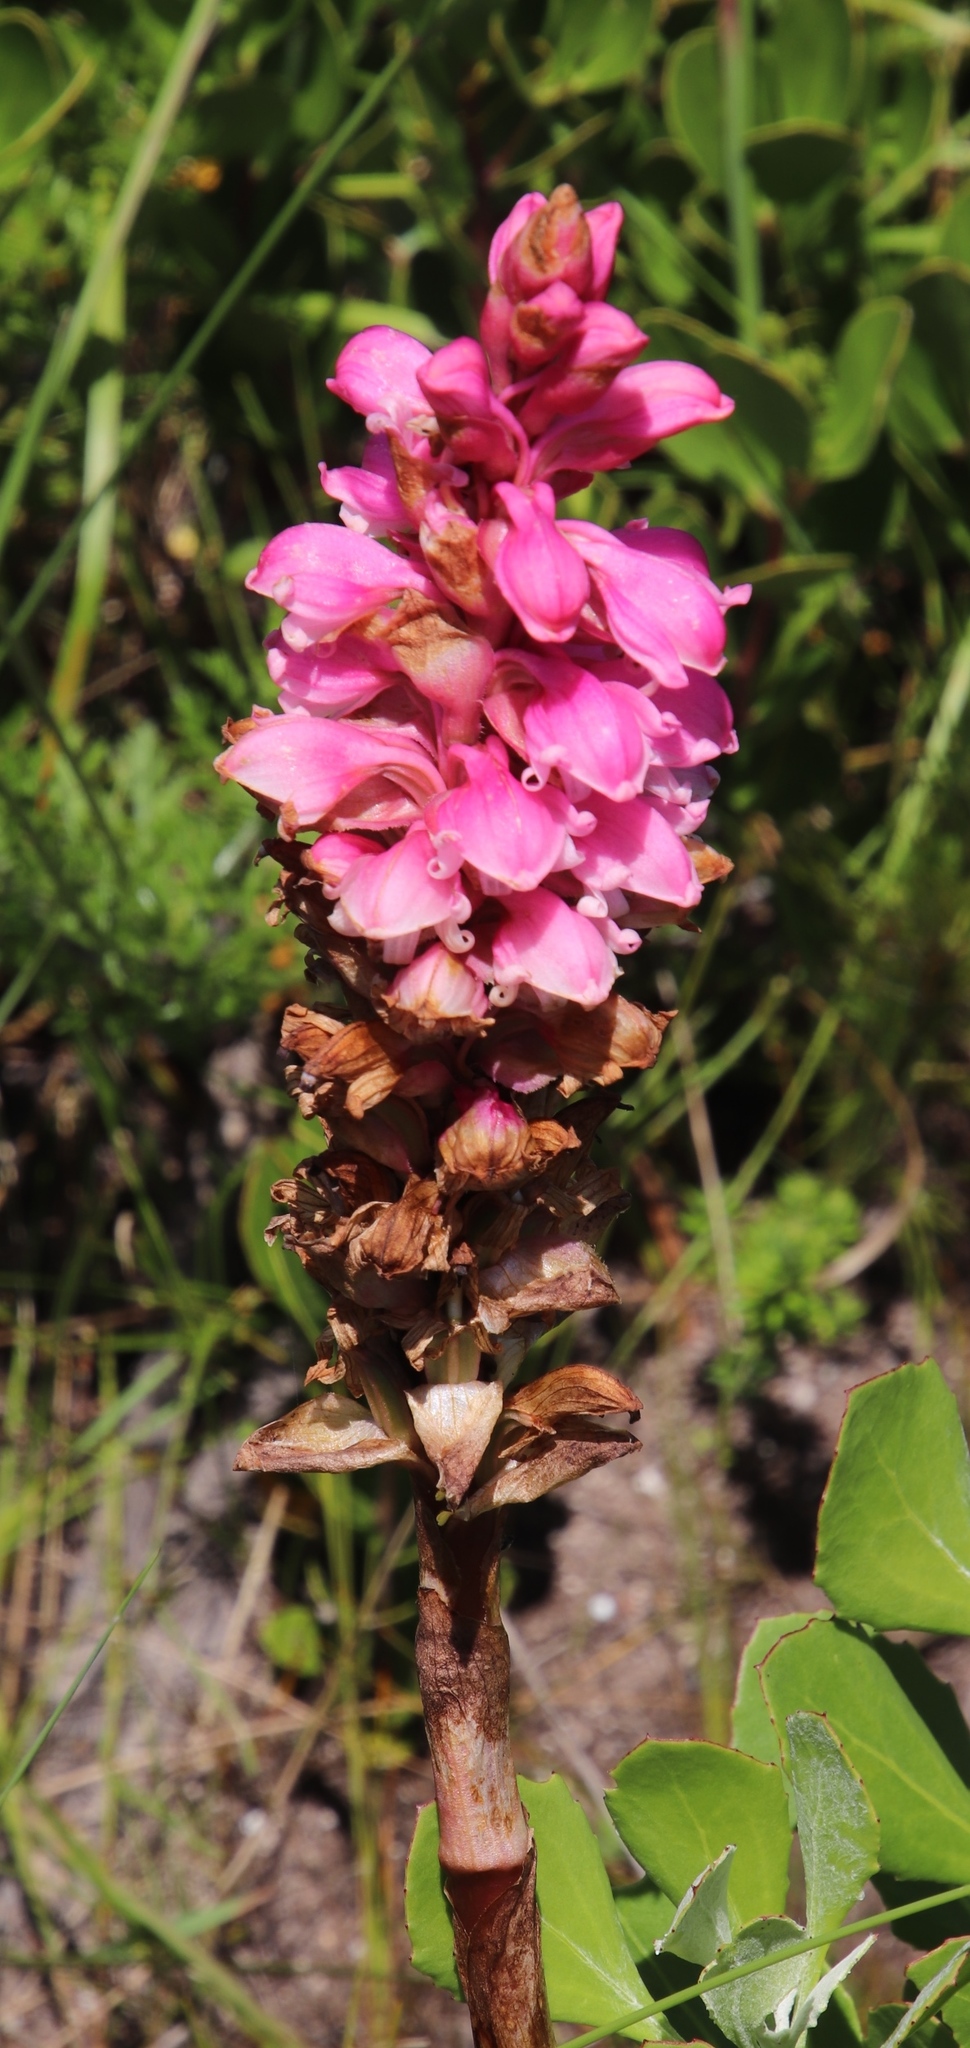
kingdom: Plantae
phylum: Tracheophyta
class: Liliopsida
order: Asparagales
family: Orchidaceae
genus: Satyrium
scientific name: Satyrium carneum
